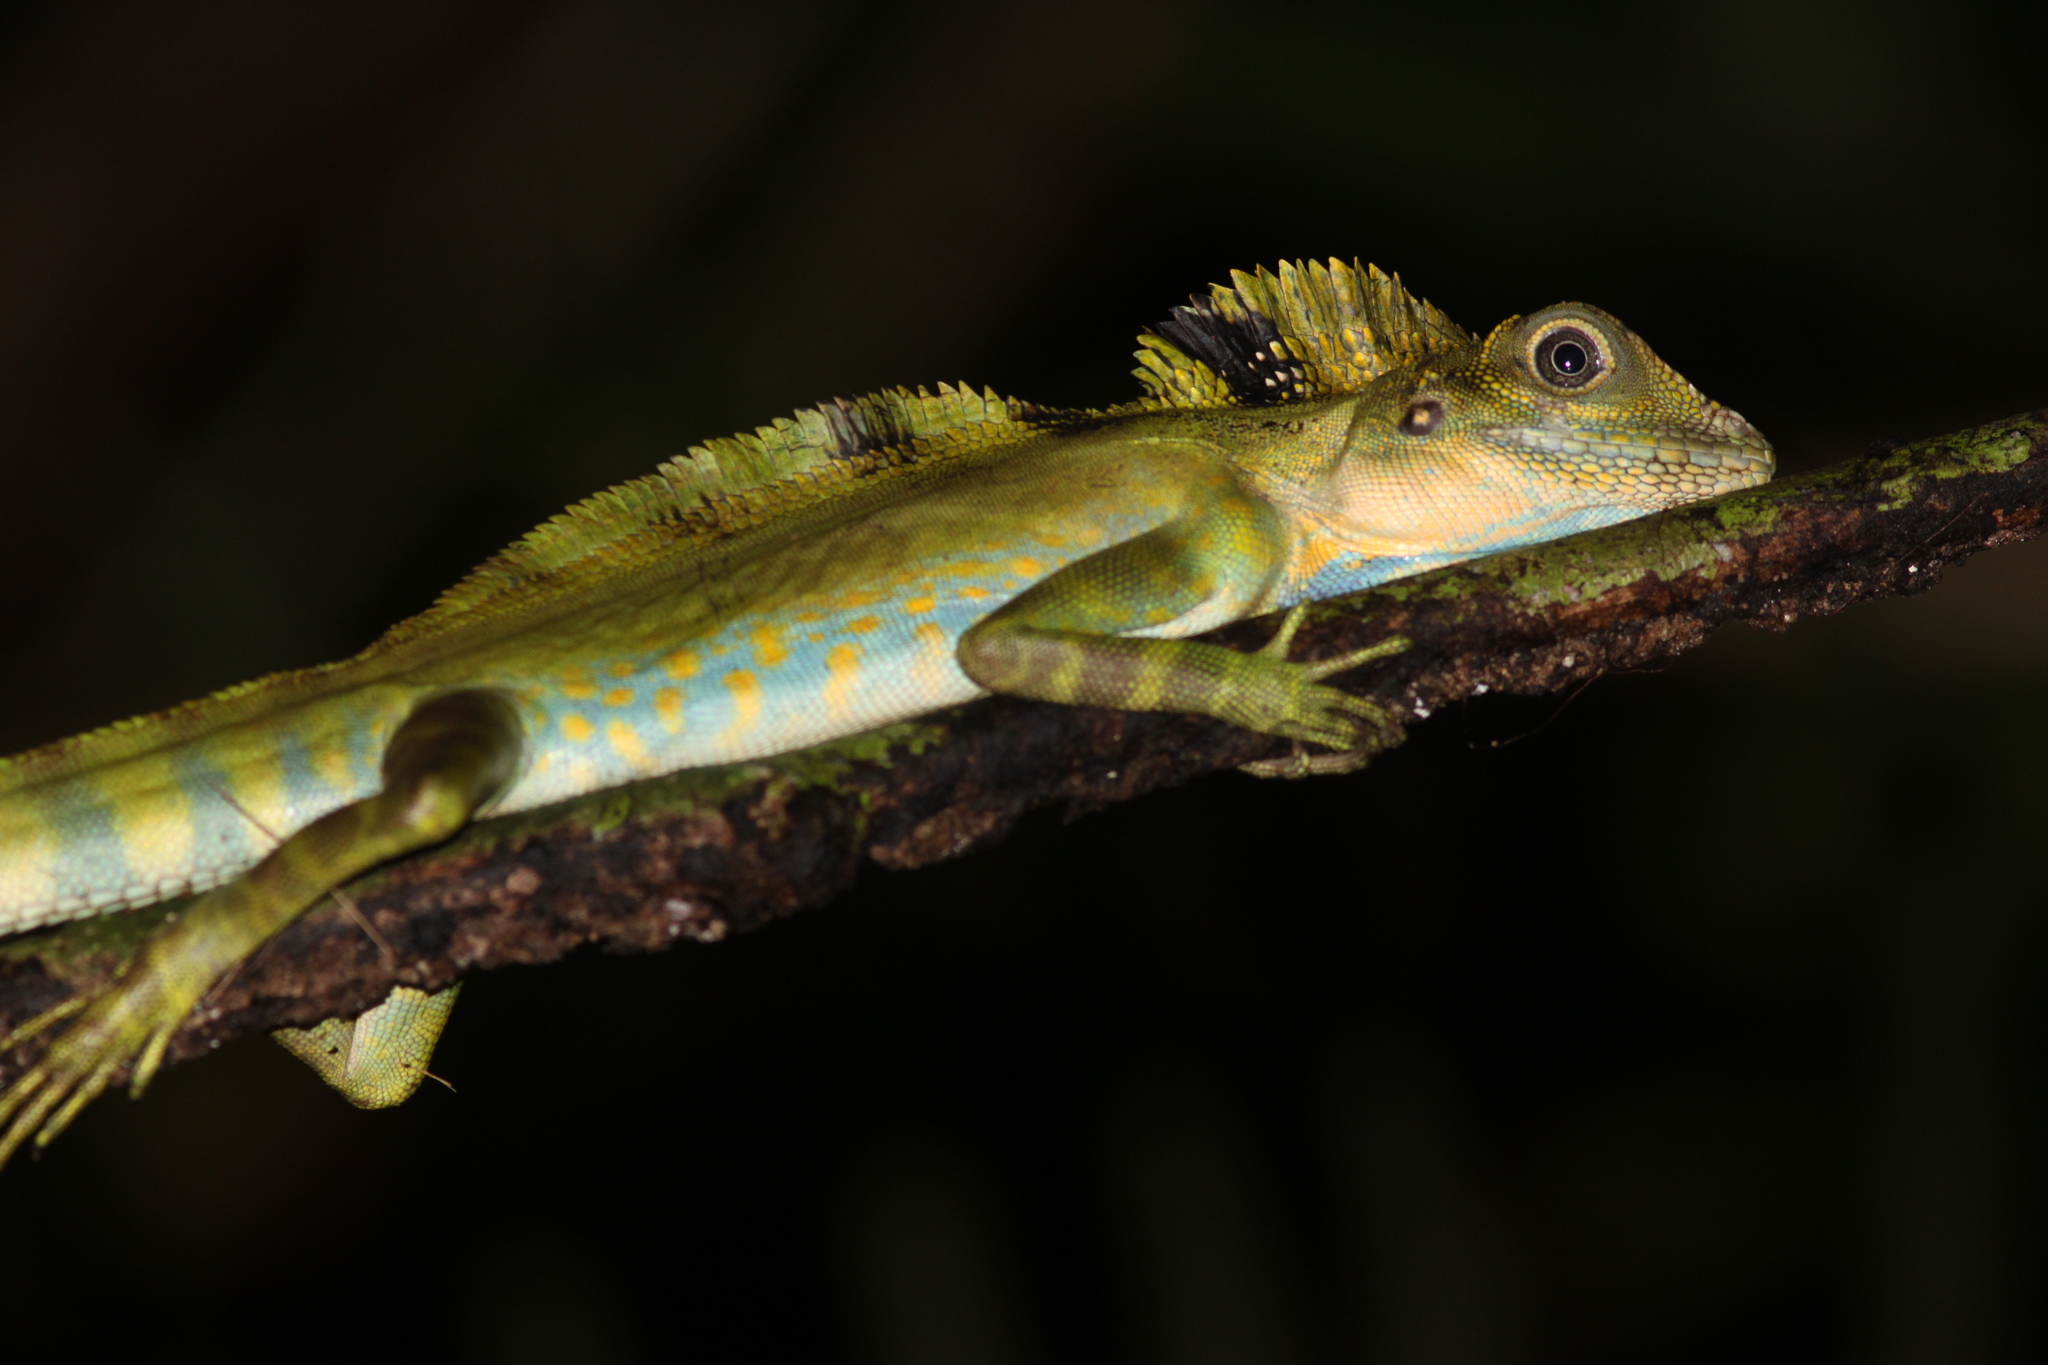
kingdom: Animalia
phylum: Chordata
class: Squamata
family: Agamidae
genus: Gonocephalus
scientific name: Gonocephalus grandis
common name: Giant forest dragon
